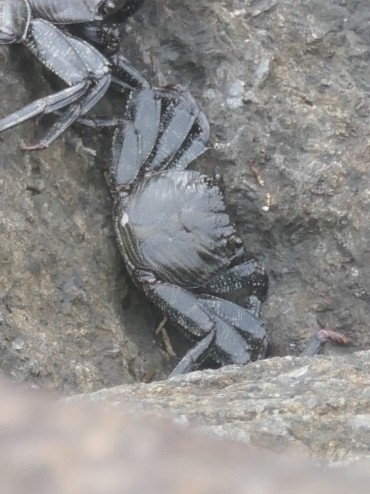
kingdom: Animalia
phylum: Arthropoda
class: Malacostraca
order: Decapoda
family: Grapsidae
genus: Grapsus
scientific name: Grapsus adscensionis
